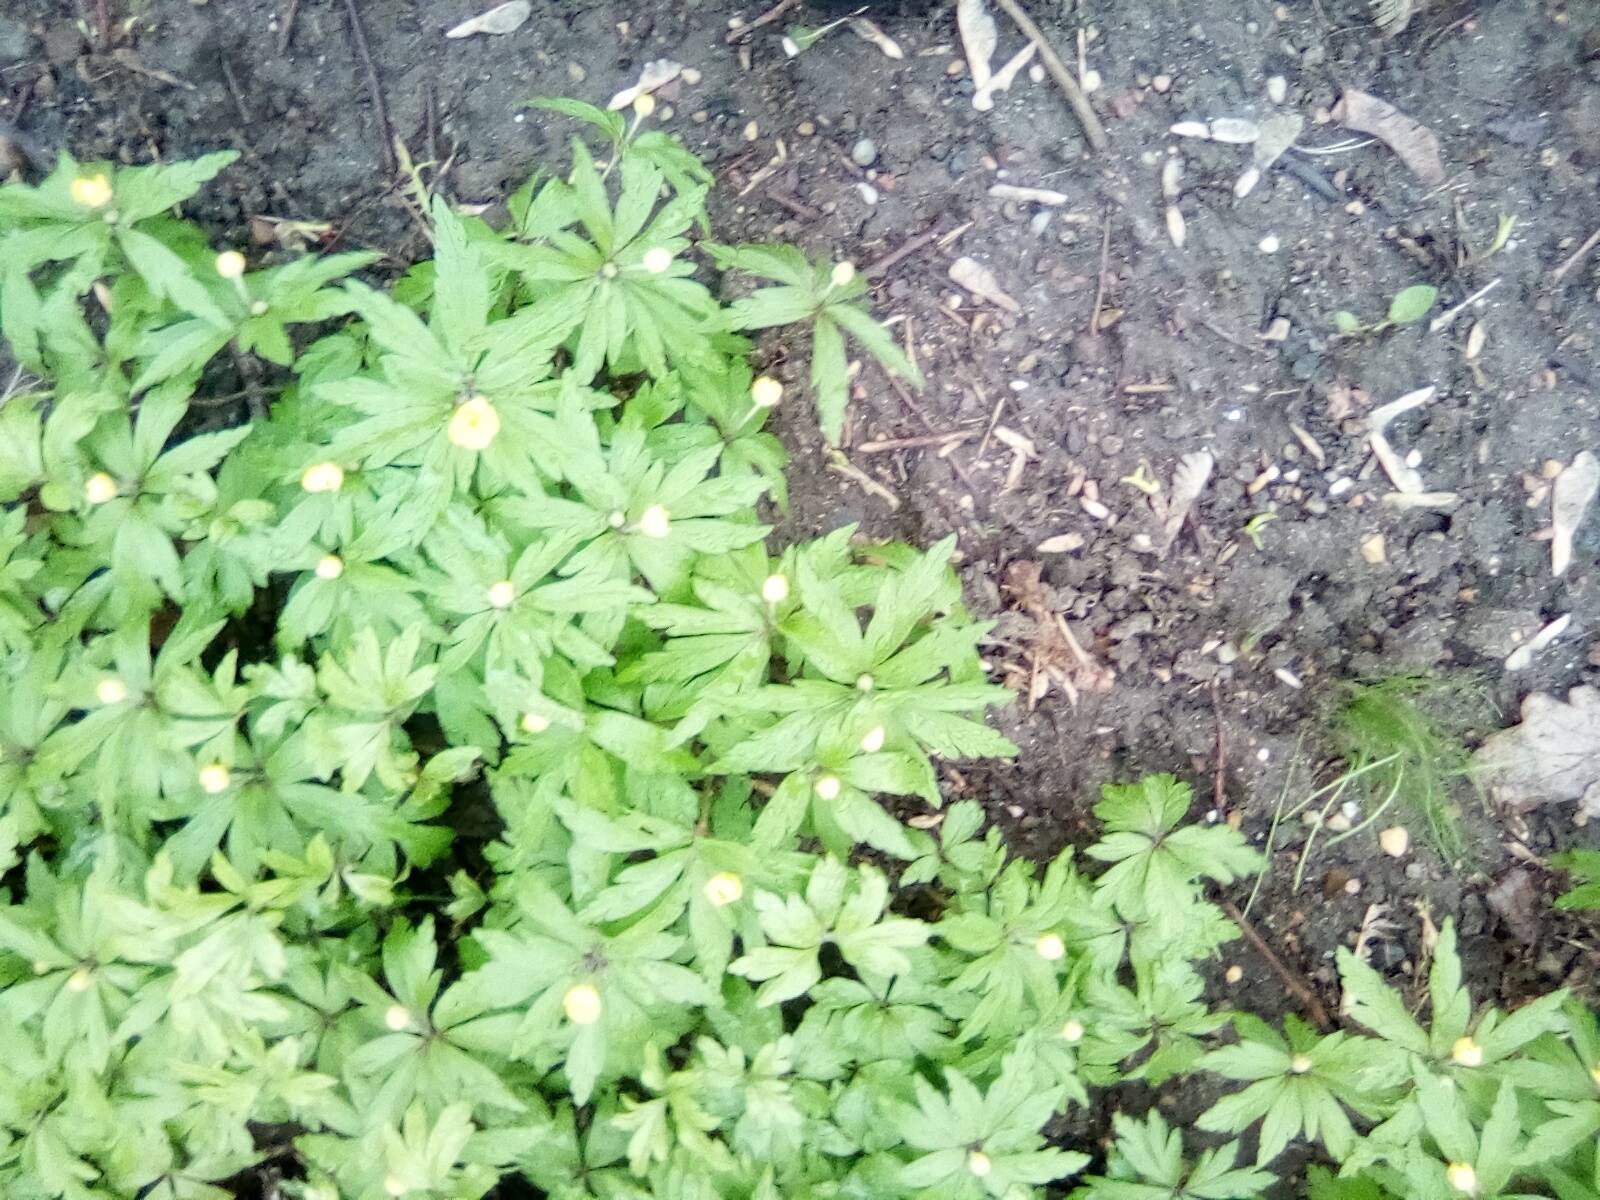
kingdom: Plantae
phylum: Tracheophyta
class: Magnoliopsida
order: Ranunculales
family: Ranunculaceae
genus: Anemone
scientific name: Anemone ranunculoides
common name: Yellow anemone
